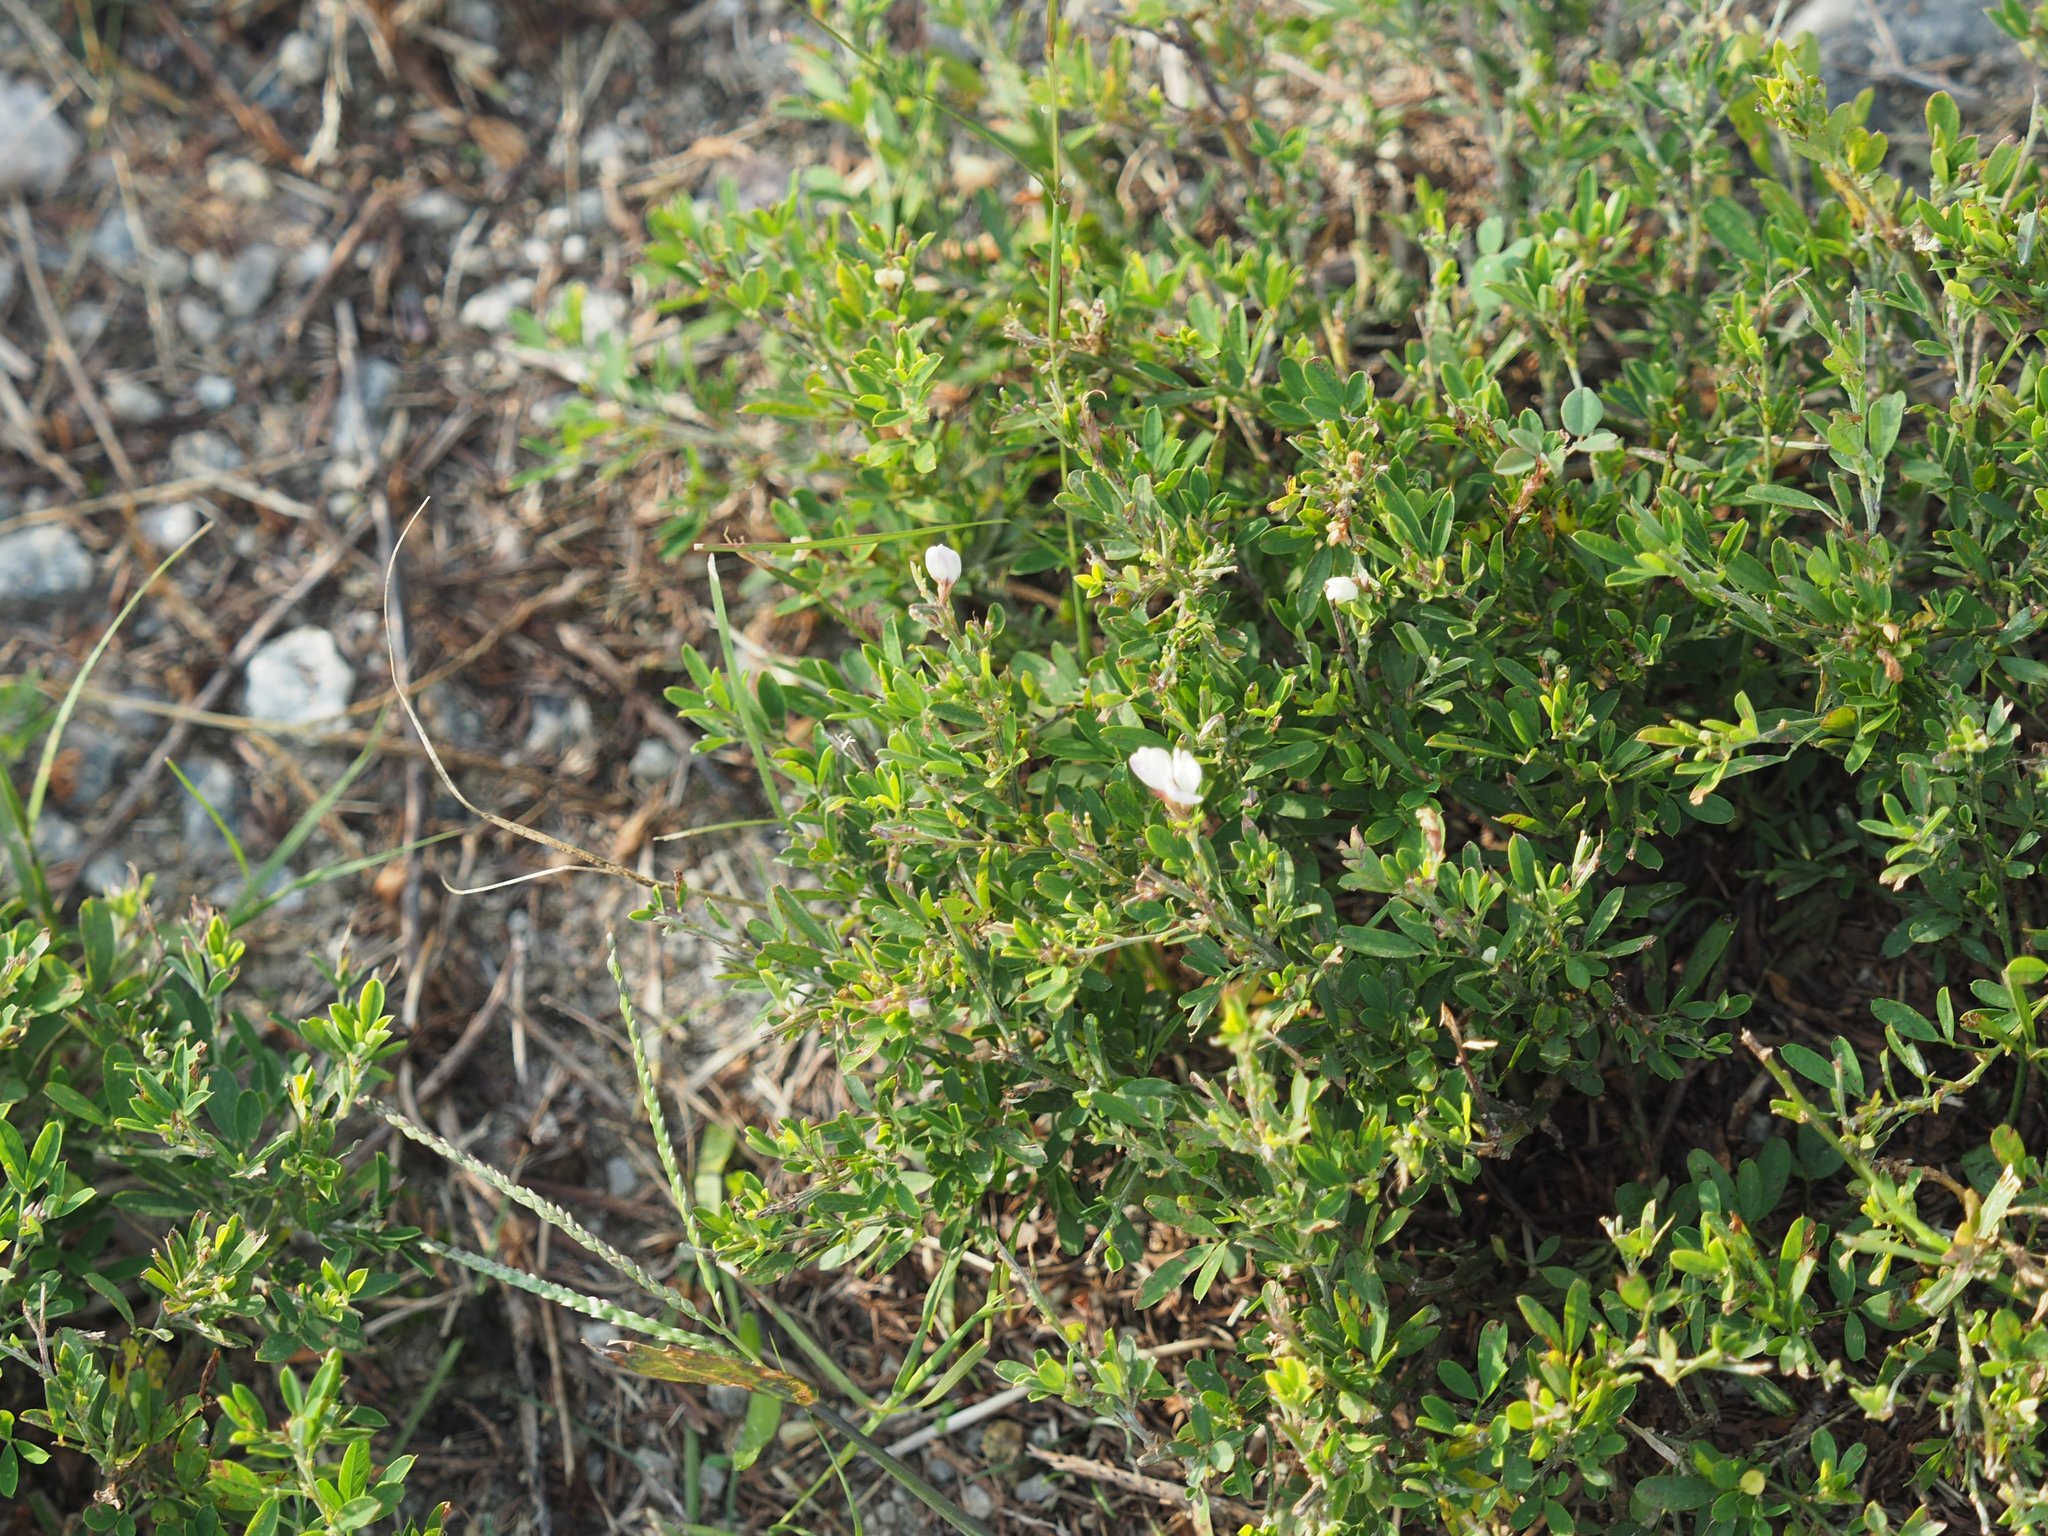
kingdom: Plantae
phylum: Tracheophyta
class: Magnoliopsida
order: Fabales
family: Fabaceae
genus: Lespedeza
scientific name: Lespedeza cuneata
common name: Chinese bush-clover
